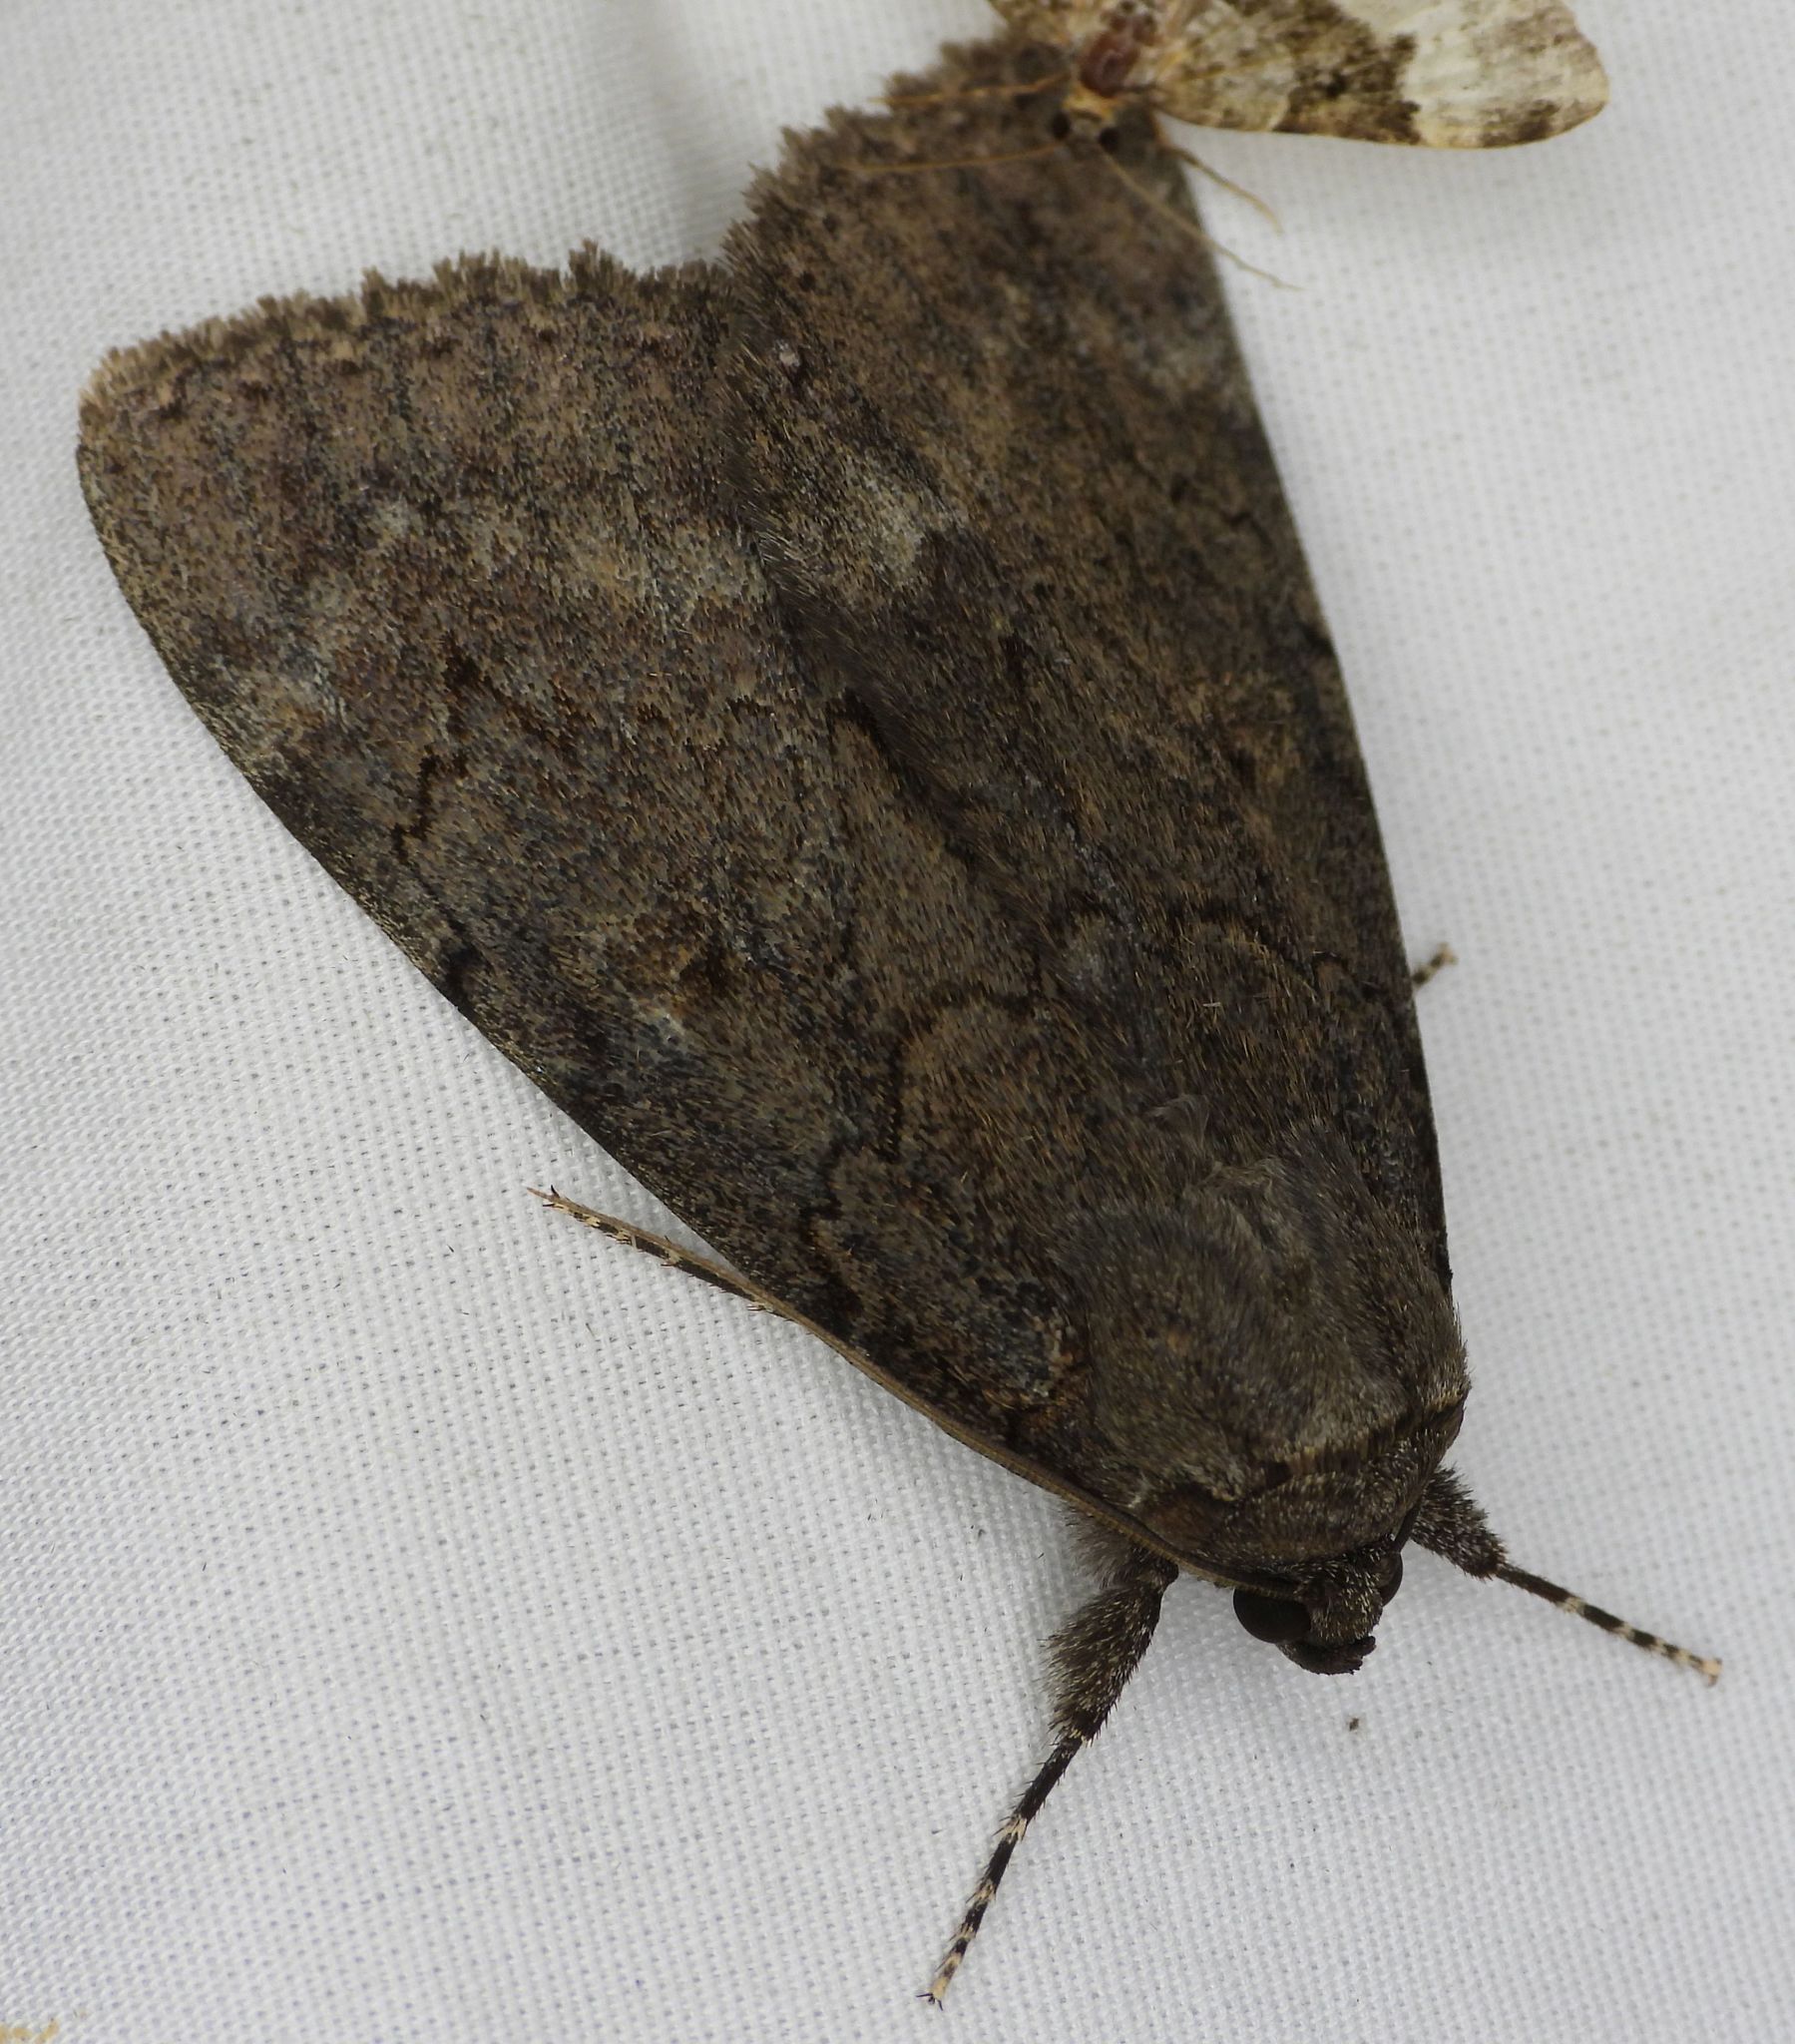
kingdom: Animalia
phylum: Arthropoda
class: Insecta
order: Lepidoptera
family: Erebidae
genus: Catocala
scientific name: Catocala obscura
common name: Obscure underwing moth
